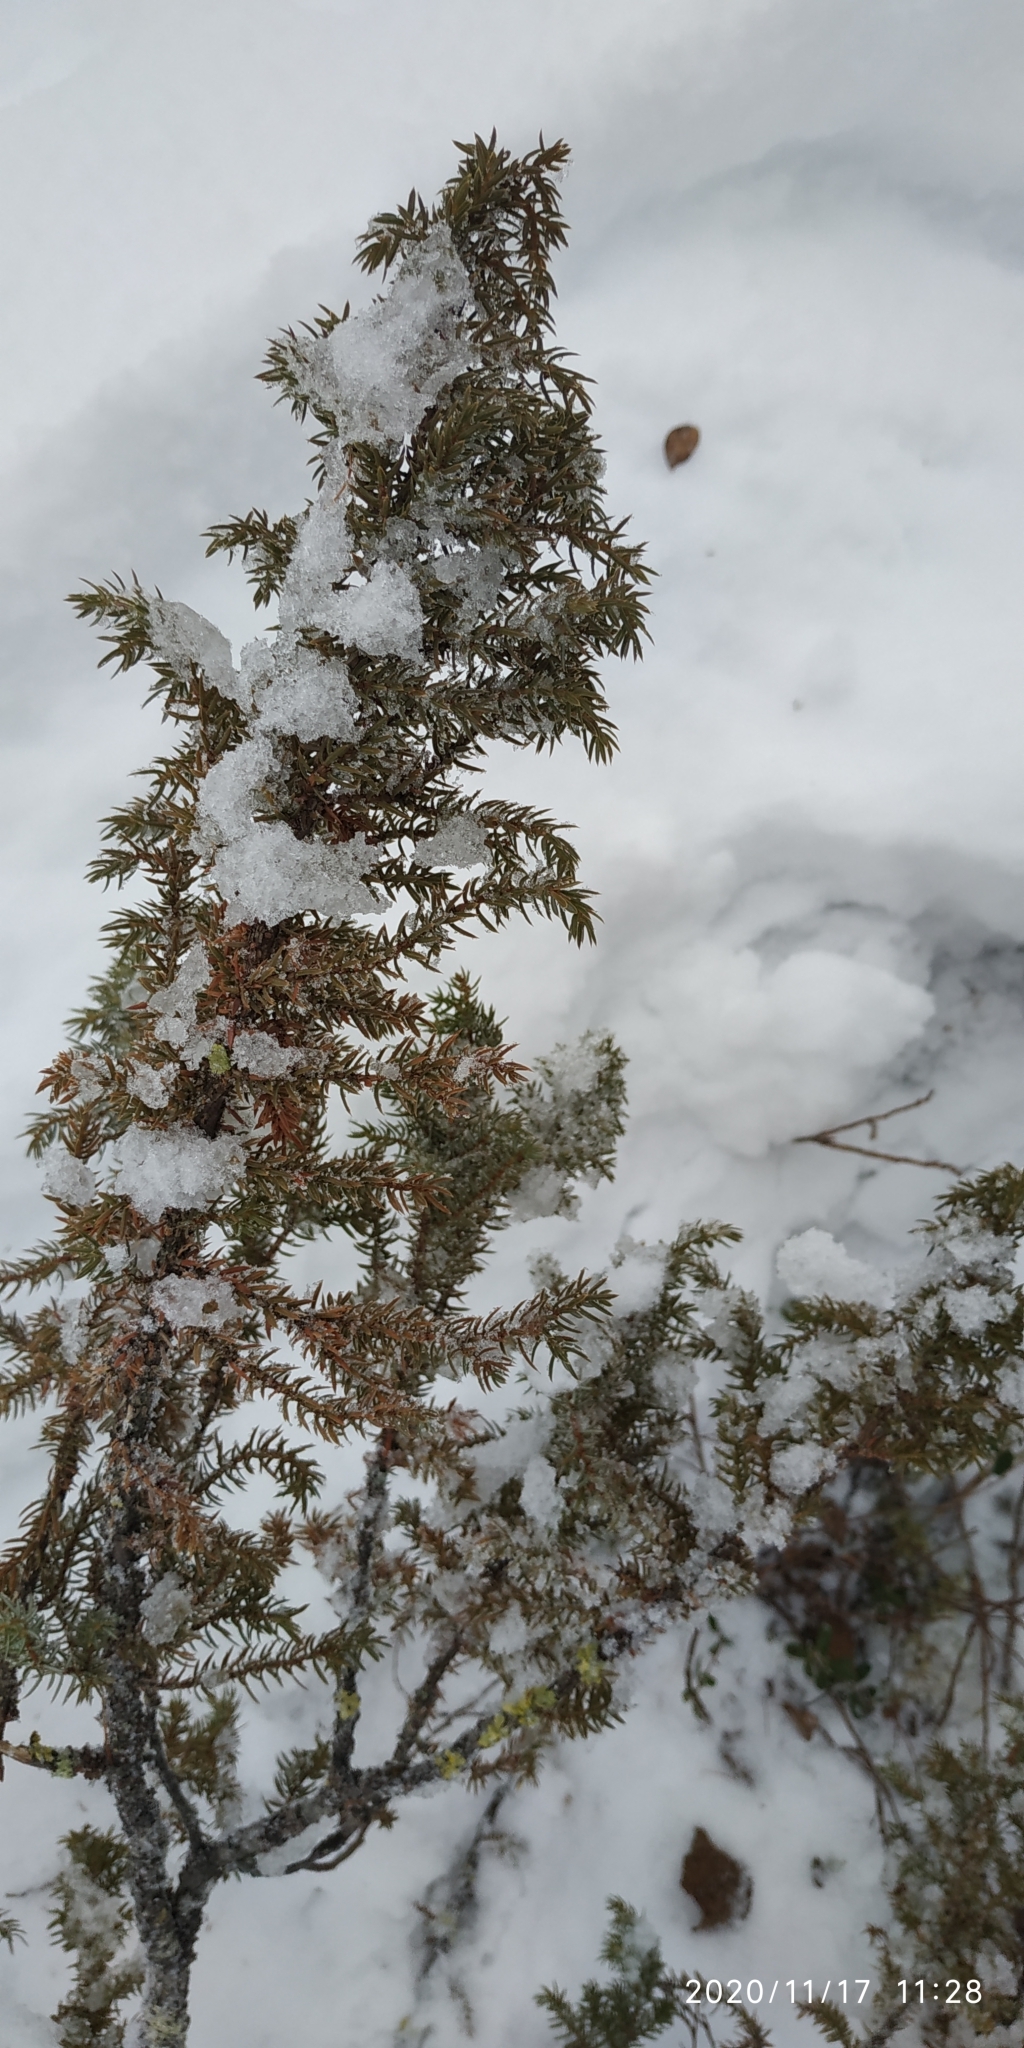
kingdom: Plantae
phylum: Tracheophyta
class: Pinopsida
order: Pinales
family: Cupressaceae
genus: Juniperus
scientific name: Juniperus communis
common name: Common juniper
